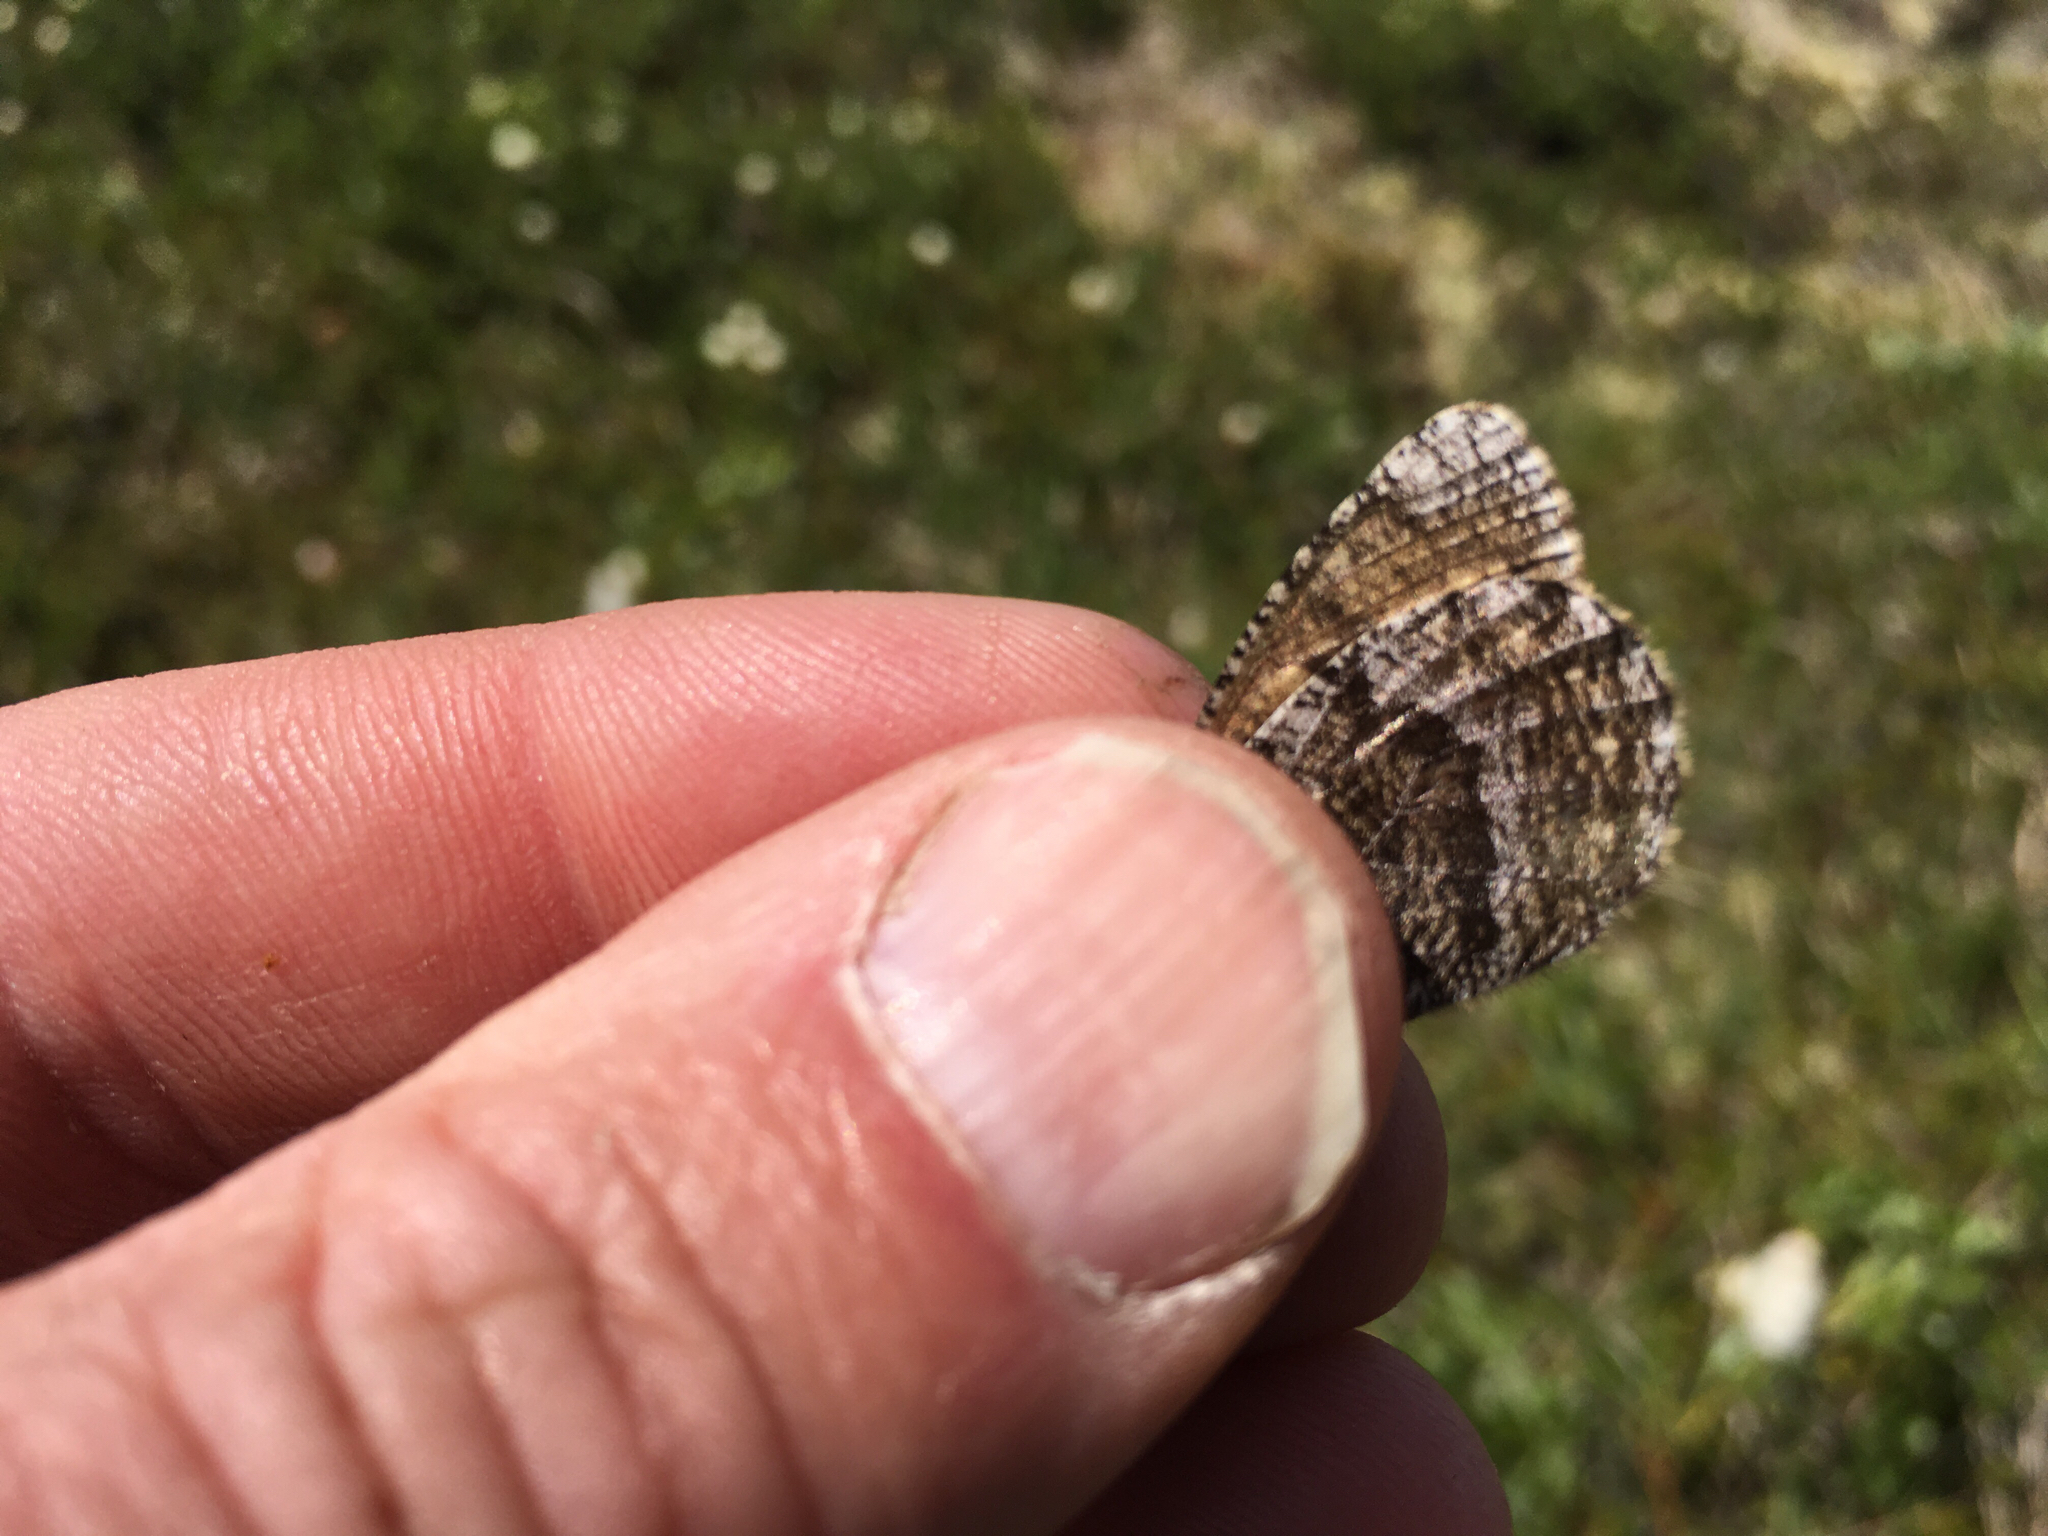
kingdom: Animalia
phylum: Arthropoda
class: Insecta
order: Lepidoptera
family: Nymphalidae
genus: Oeneis
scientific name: Oeneis melissa
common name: Melissa arctic
